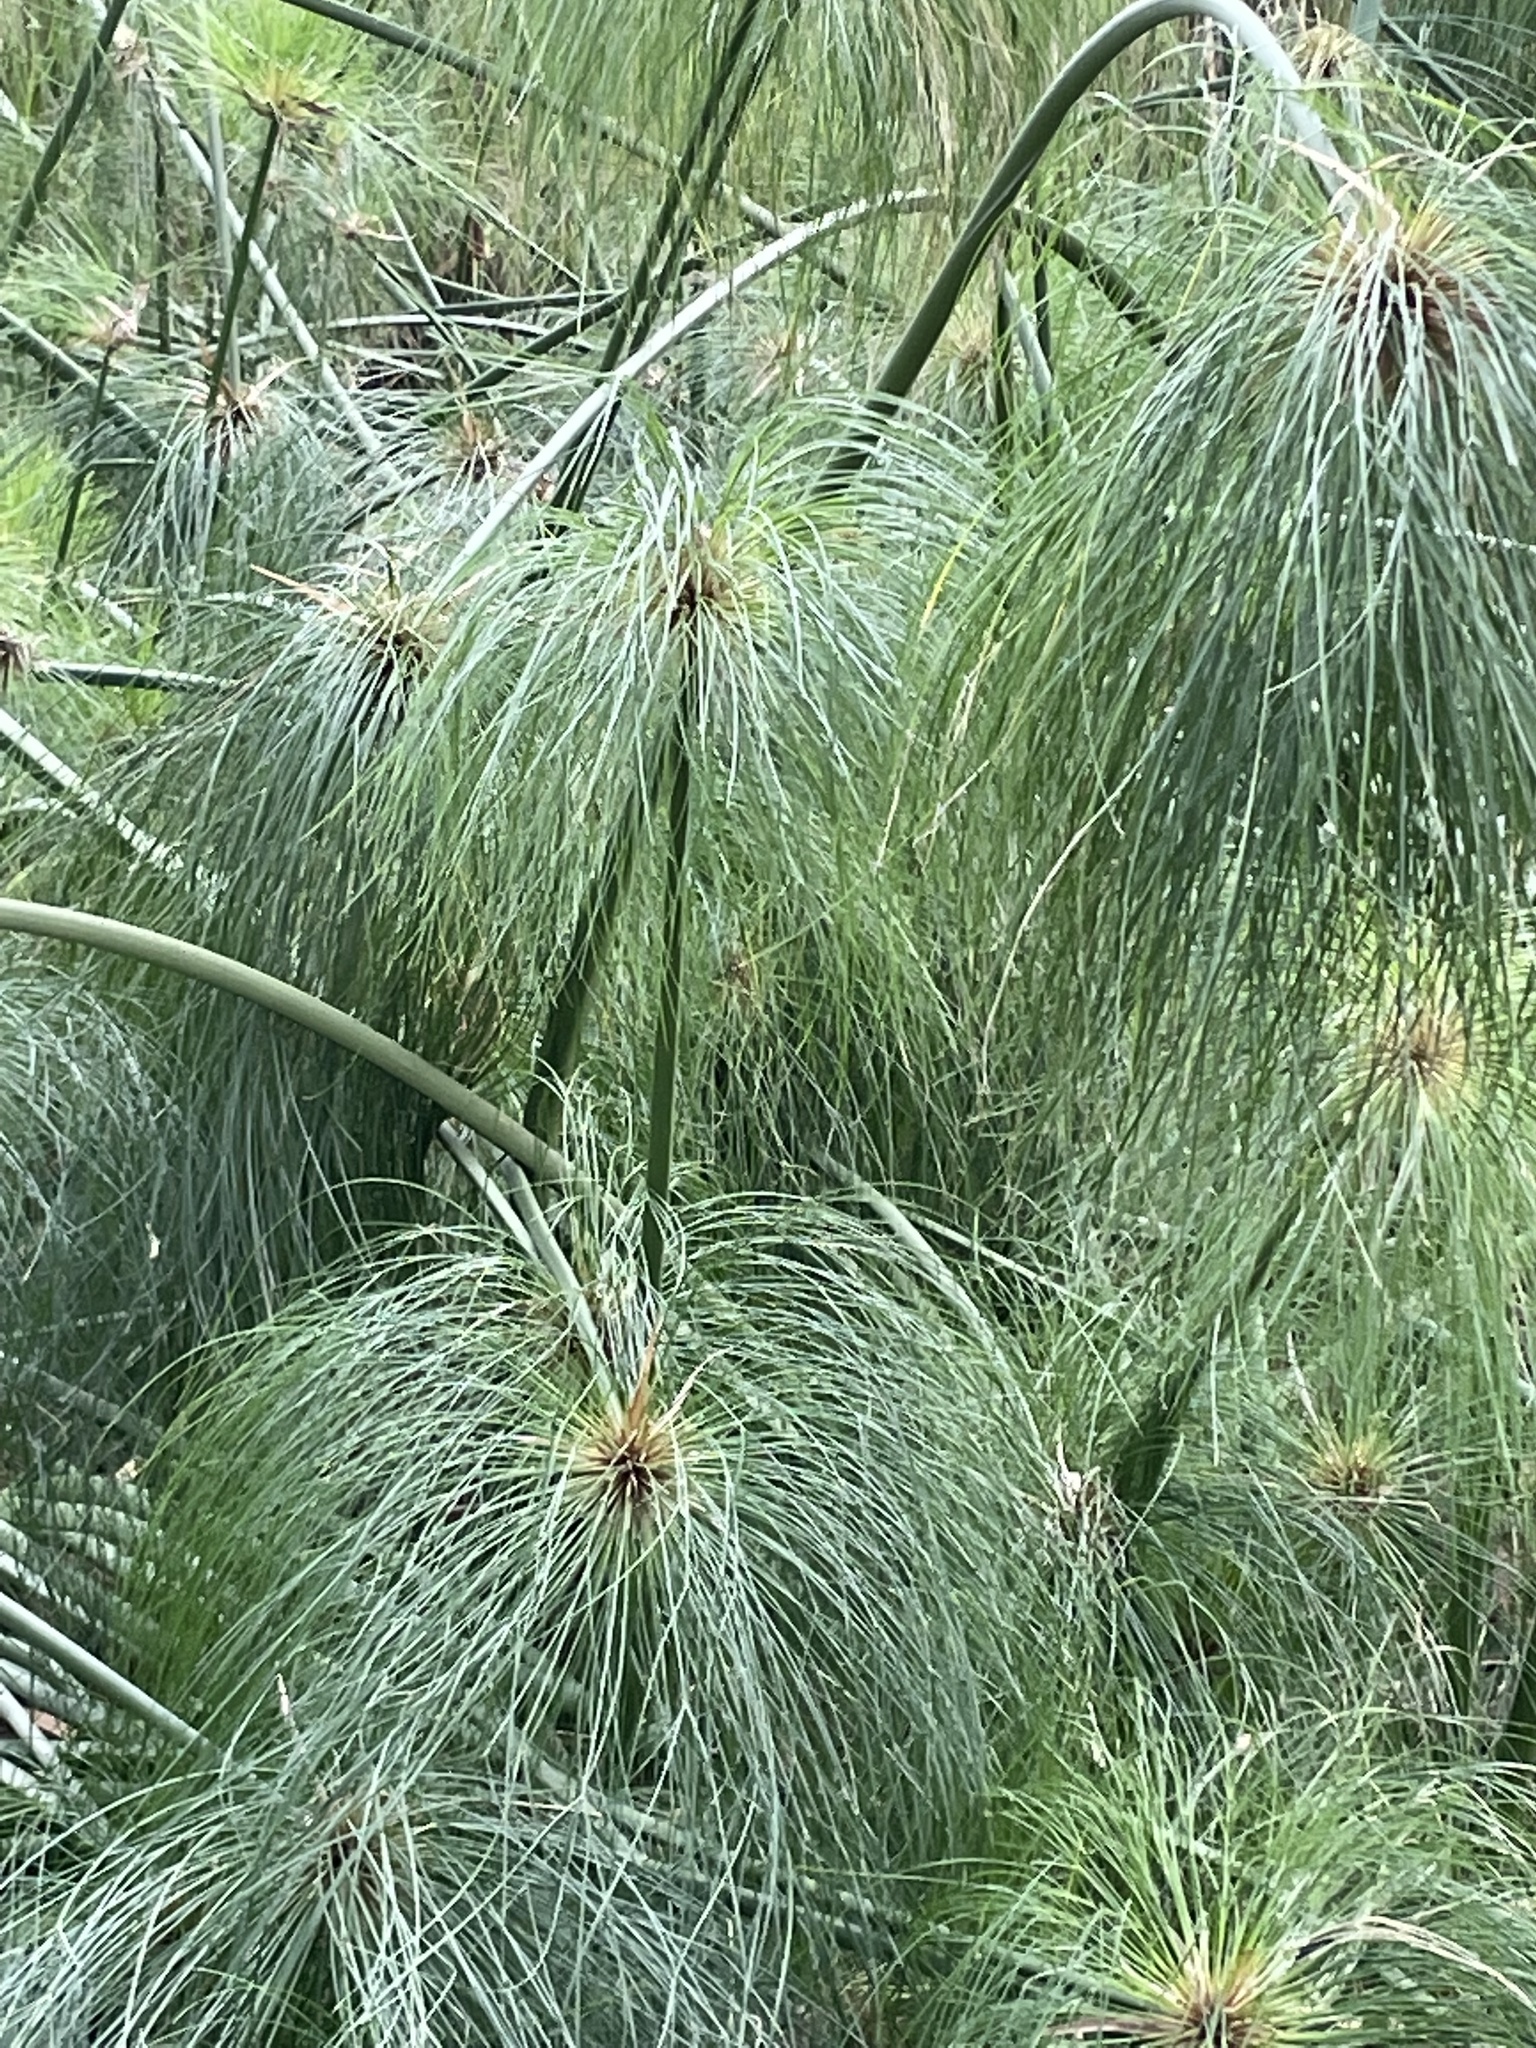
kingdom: Plantae
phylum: Tracheophyta
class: Liliopsida
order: Poales
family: Cyperaceae
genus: Cyperus
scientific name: Cyperus papyrus
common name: Papyrus
